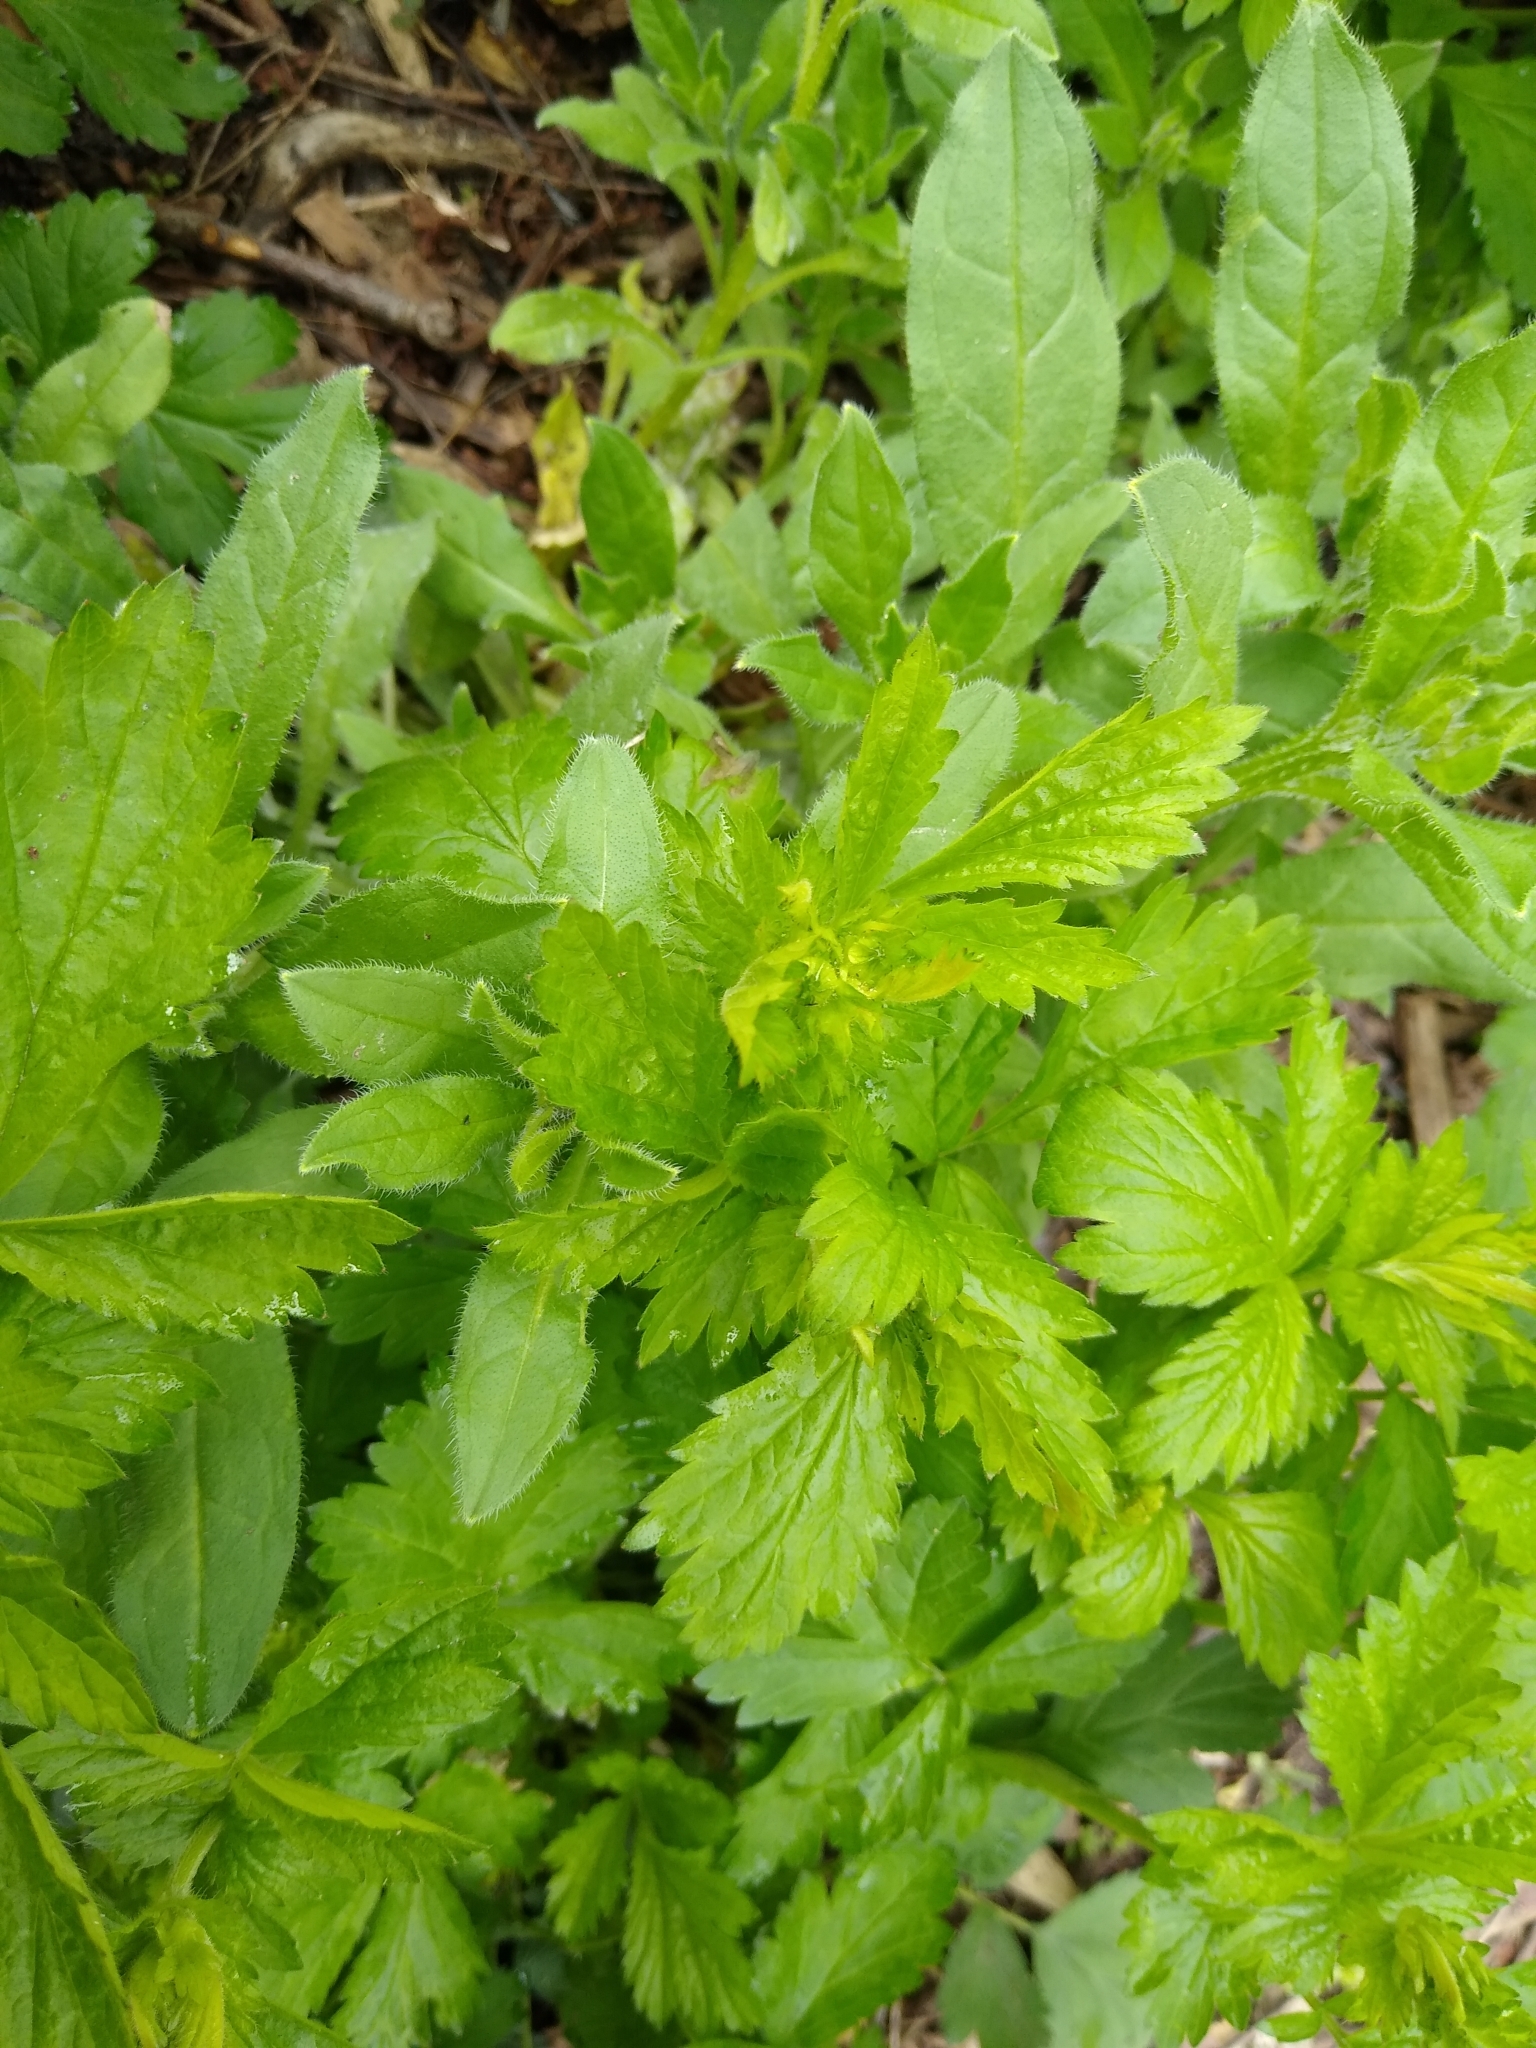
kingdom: Plantae
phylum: Tracheophyta
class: Magnoliopsida
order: Rosales
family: Rosaceae
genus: Geum
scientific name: Geum urbanum
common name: Wood avens
